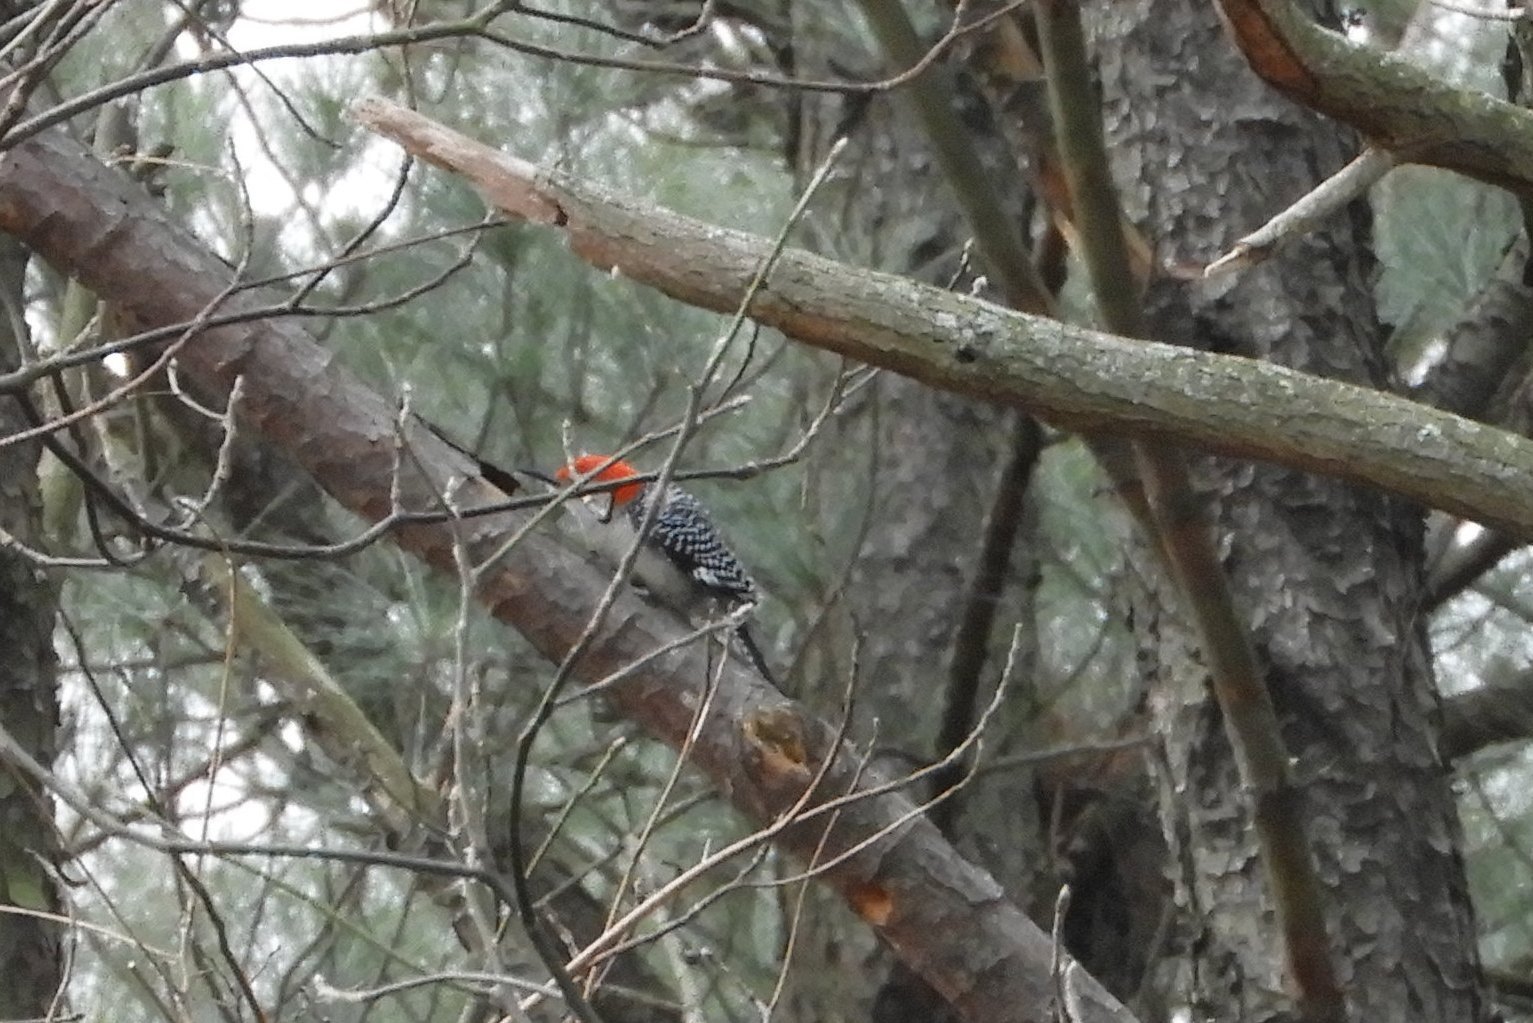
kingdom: Animalia
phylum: Chordata
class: Aves
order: Piciformes
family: Picidae
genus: Melanerpes
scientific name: Melanerpes carolinus
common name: Red-bellied woodpecker
